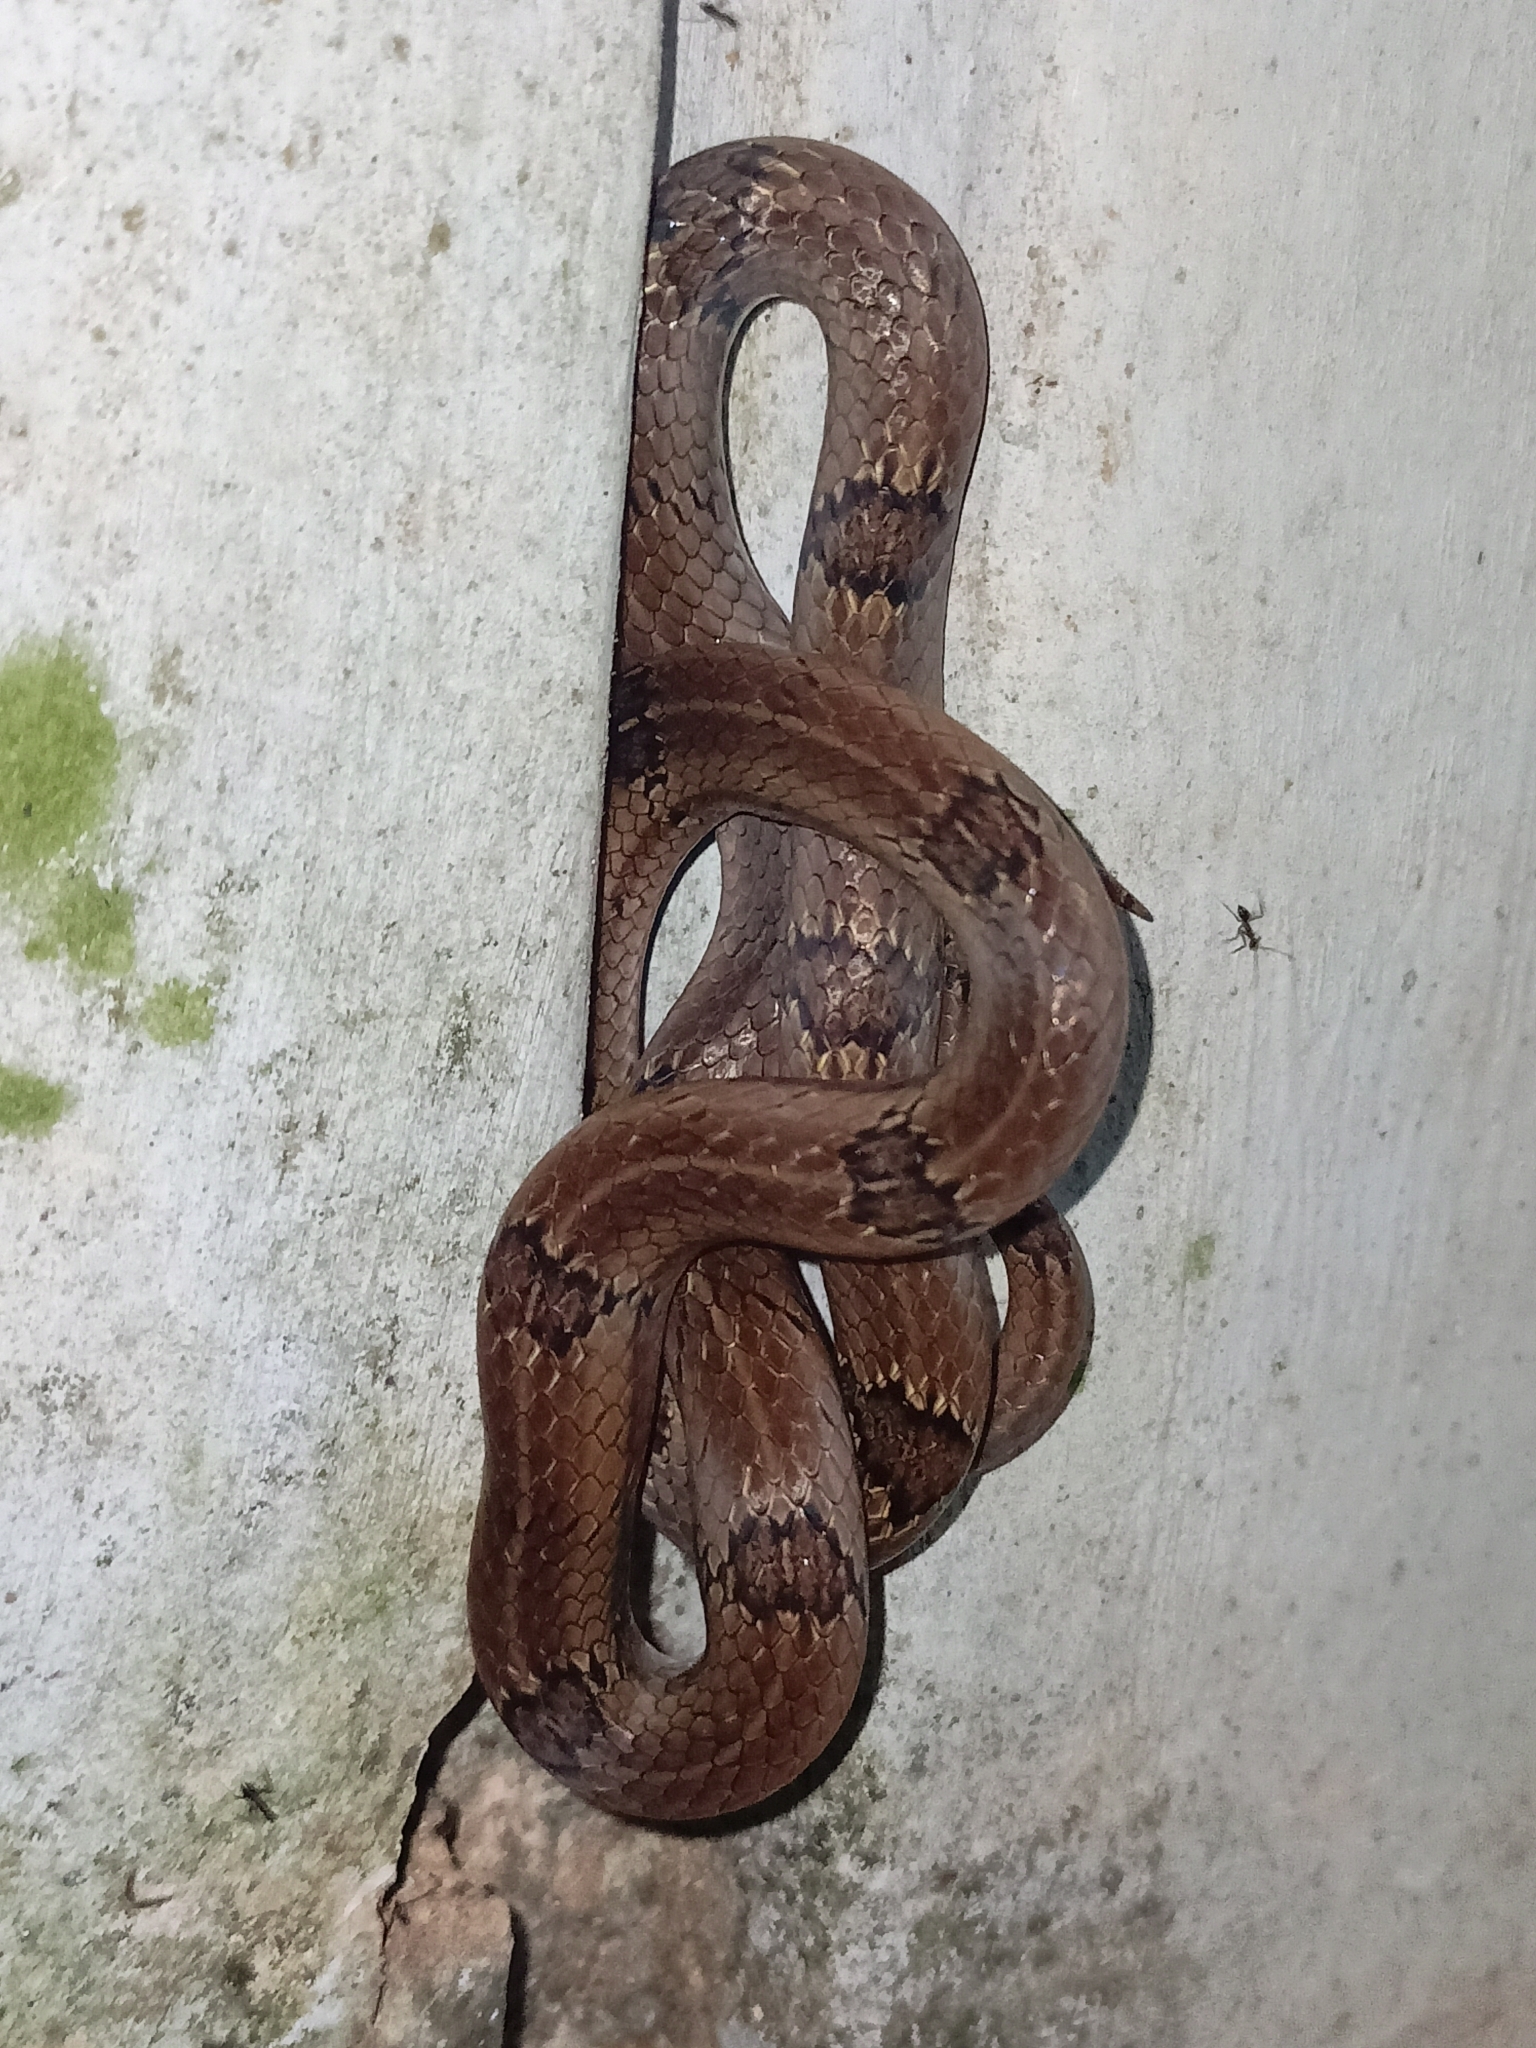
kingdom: Animalia
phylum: Chordata
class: Squamata
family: Colubridae
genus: Oligodon
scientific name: Oligodon taeniolatus
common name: Loos snake
